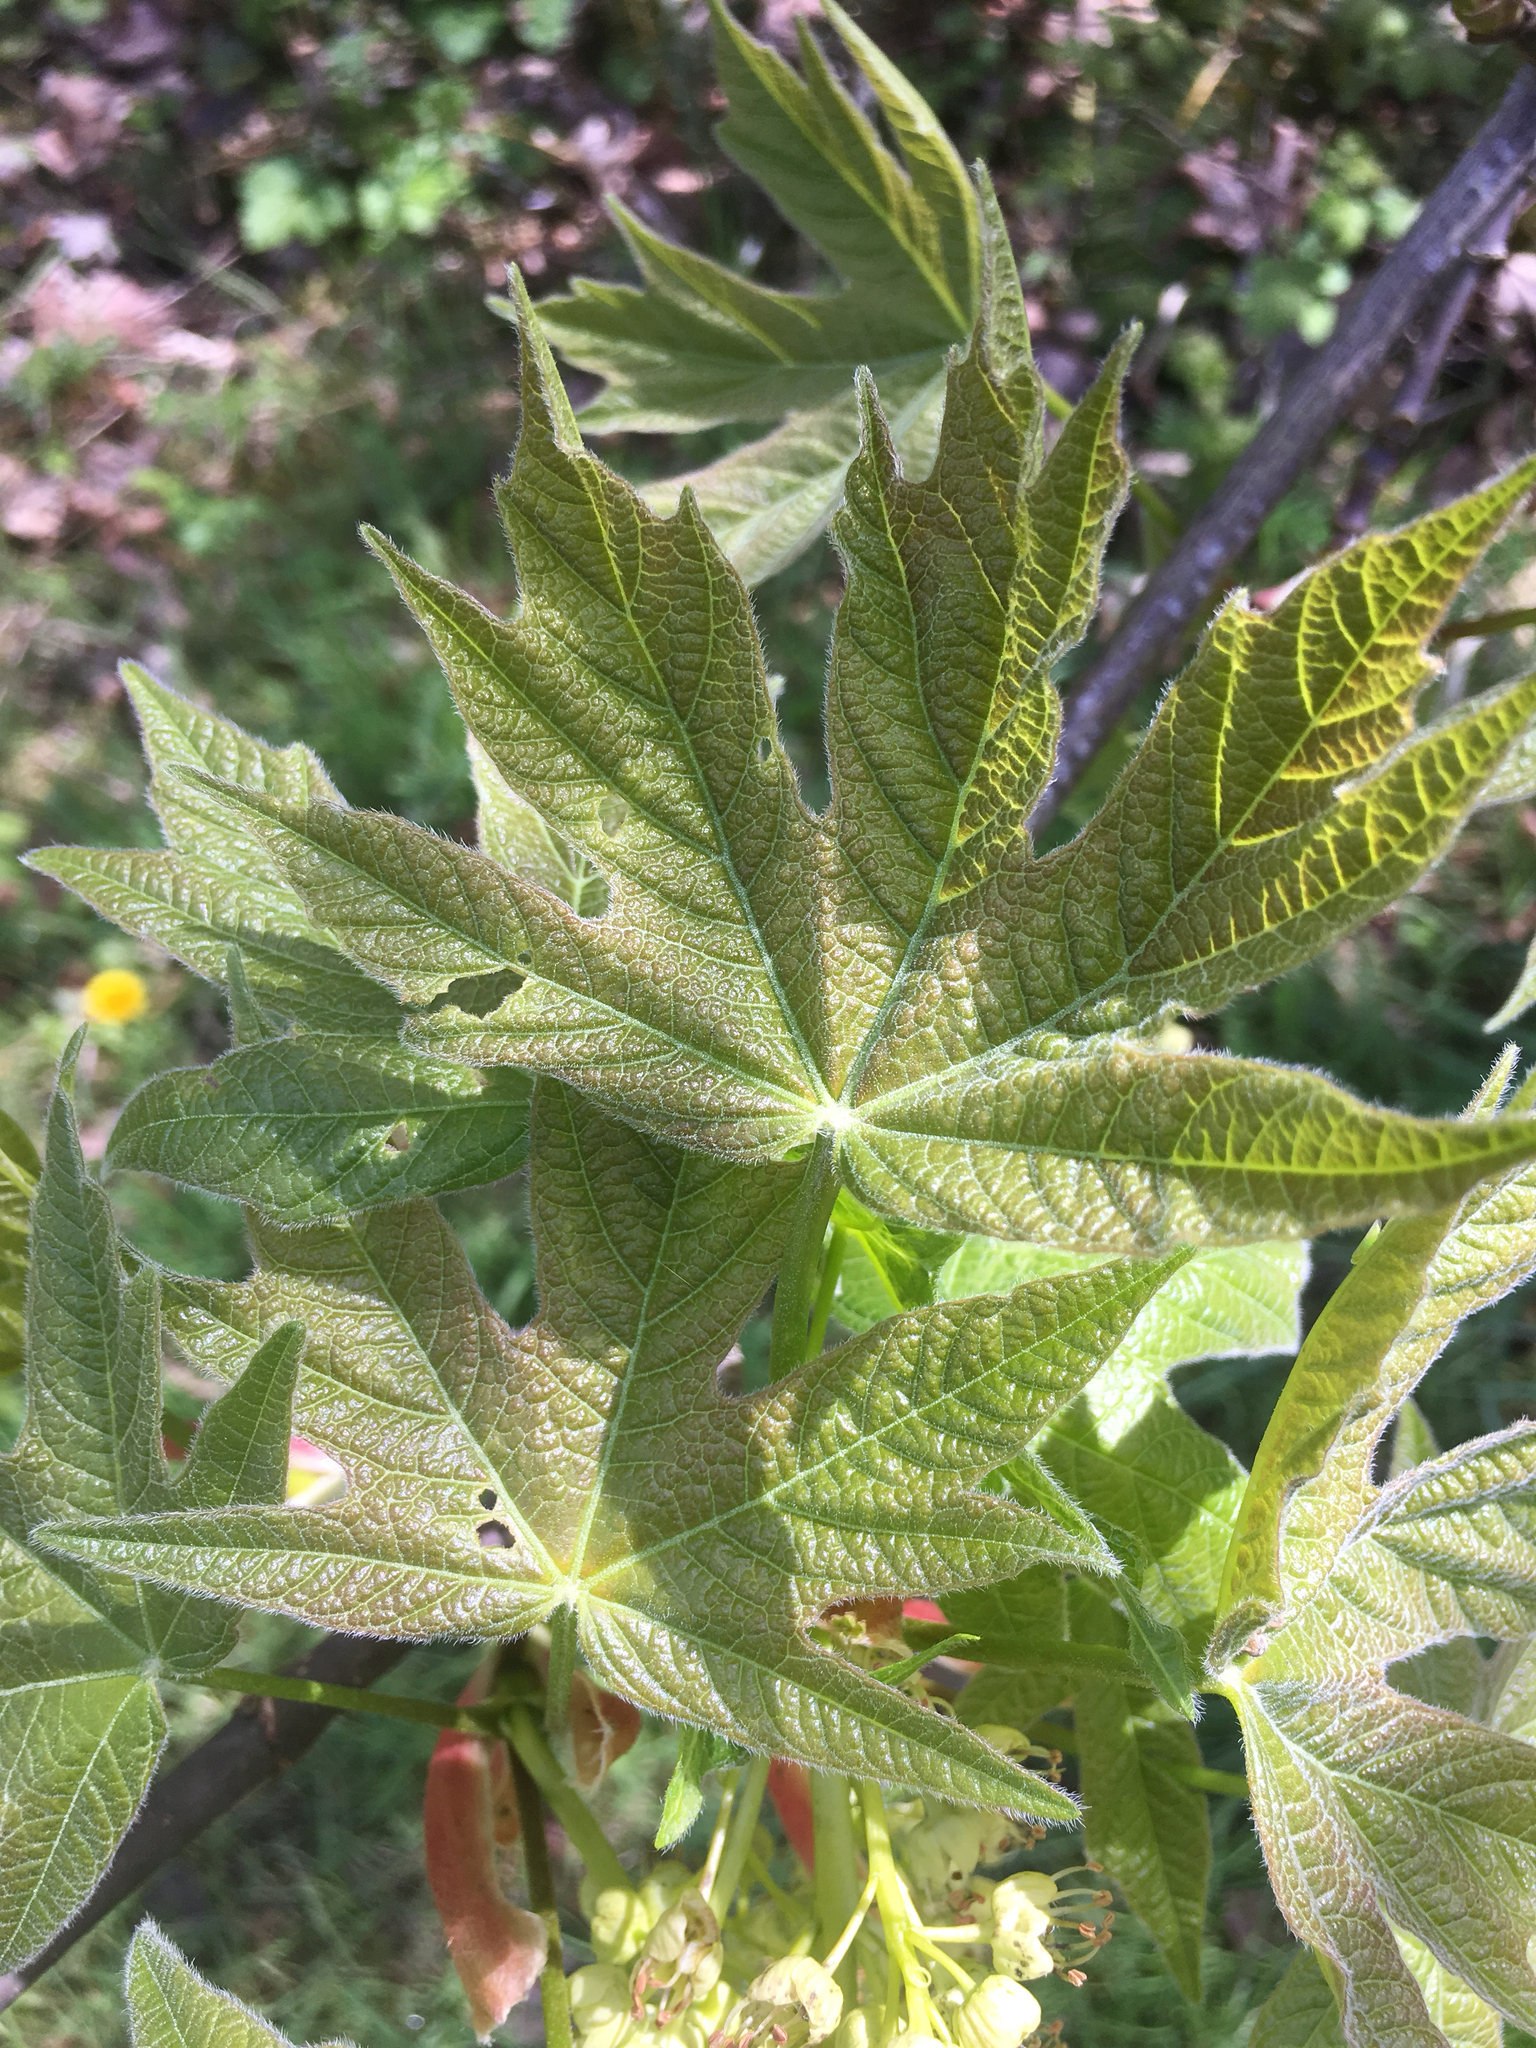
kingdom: Plantae
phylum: Tracheophyta
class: Magnoliopsida
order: Sapindales
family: Sapindaceae
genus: Acer
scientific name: Acer macrophyllum
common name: Oregon maple
